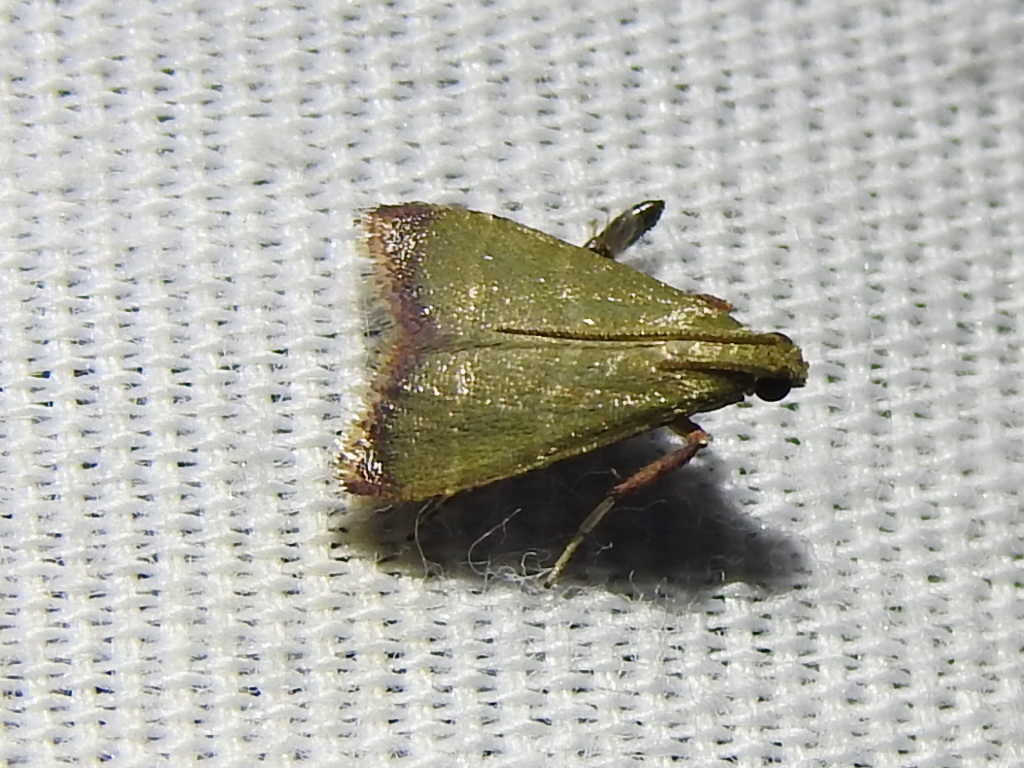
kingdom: Animalia
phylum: Arthropoda
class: Insecta
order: Lepidoptera
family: Pyralidae
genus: Arta
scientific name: Arta olivalis
